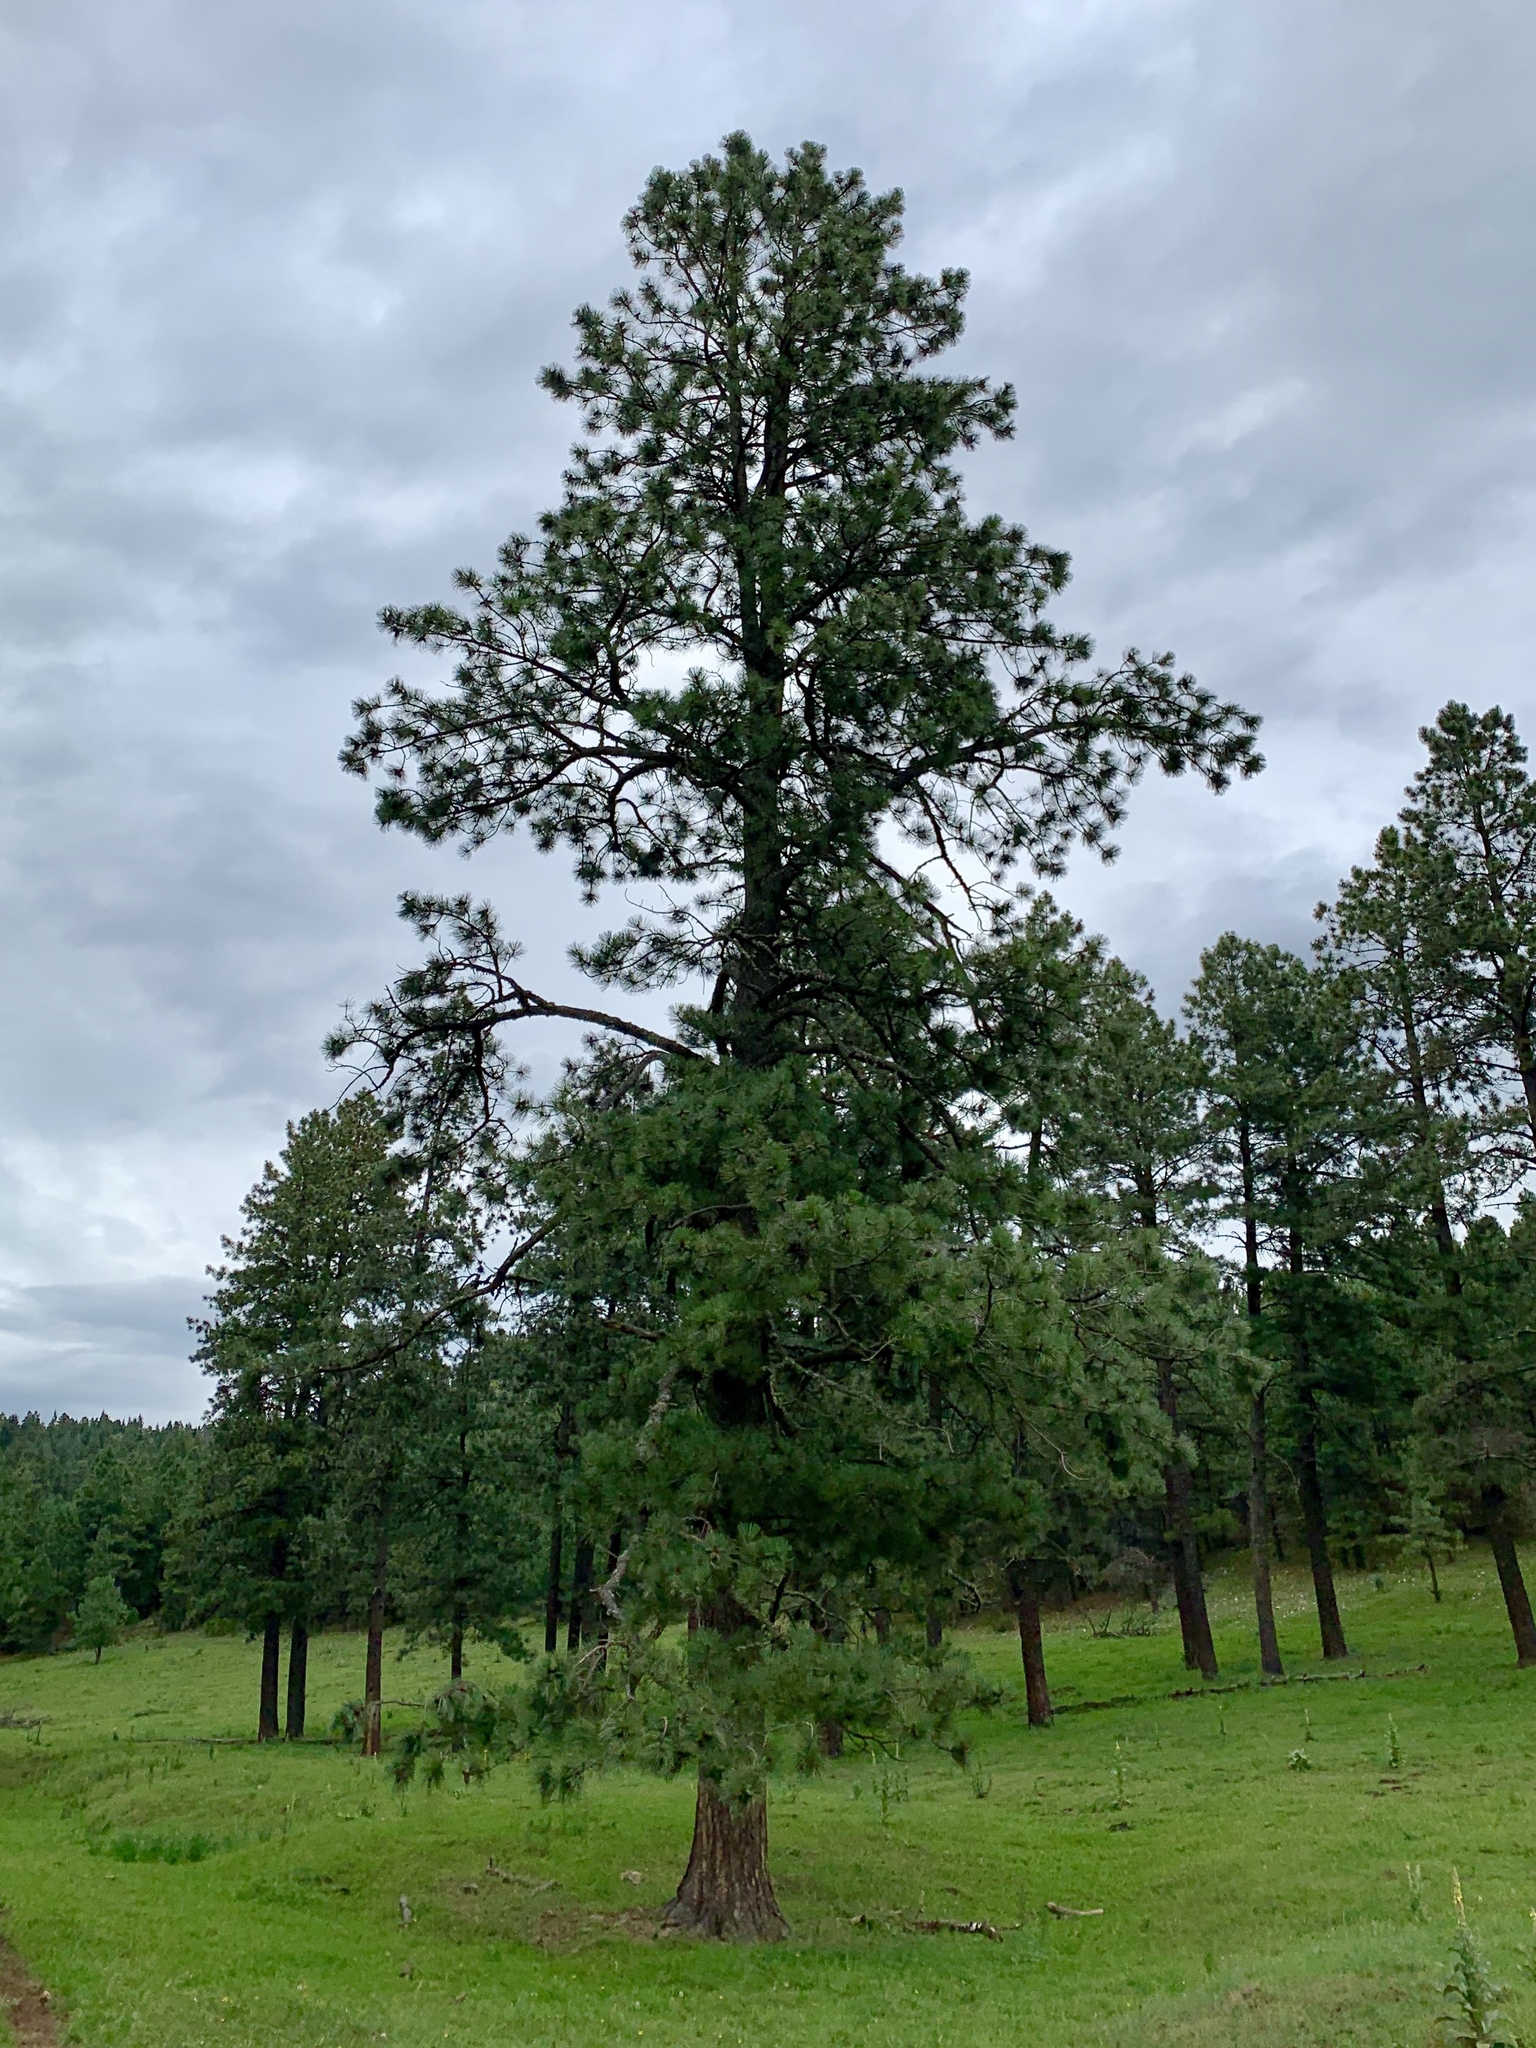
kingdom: Plantae
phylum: Tracheophyta
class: Pinopsida
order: Pinales
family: Pinaceae
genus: Pinus
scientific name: Pinus ponderosa
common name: Western yellow-pine
